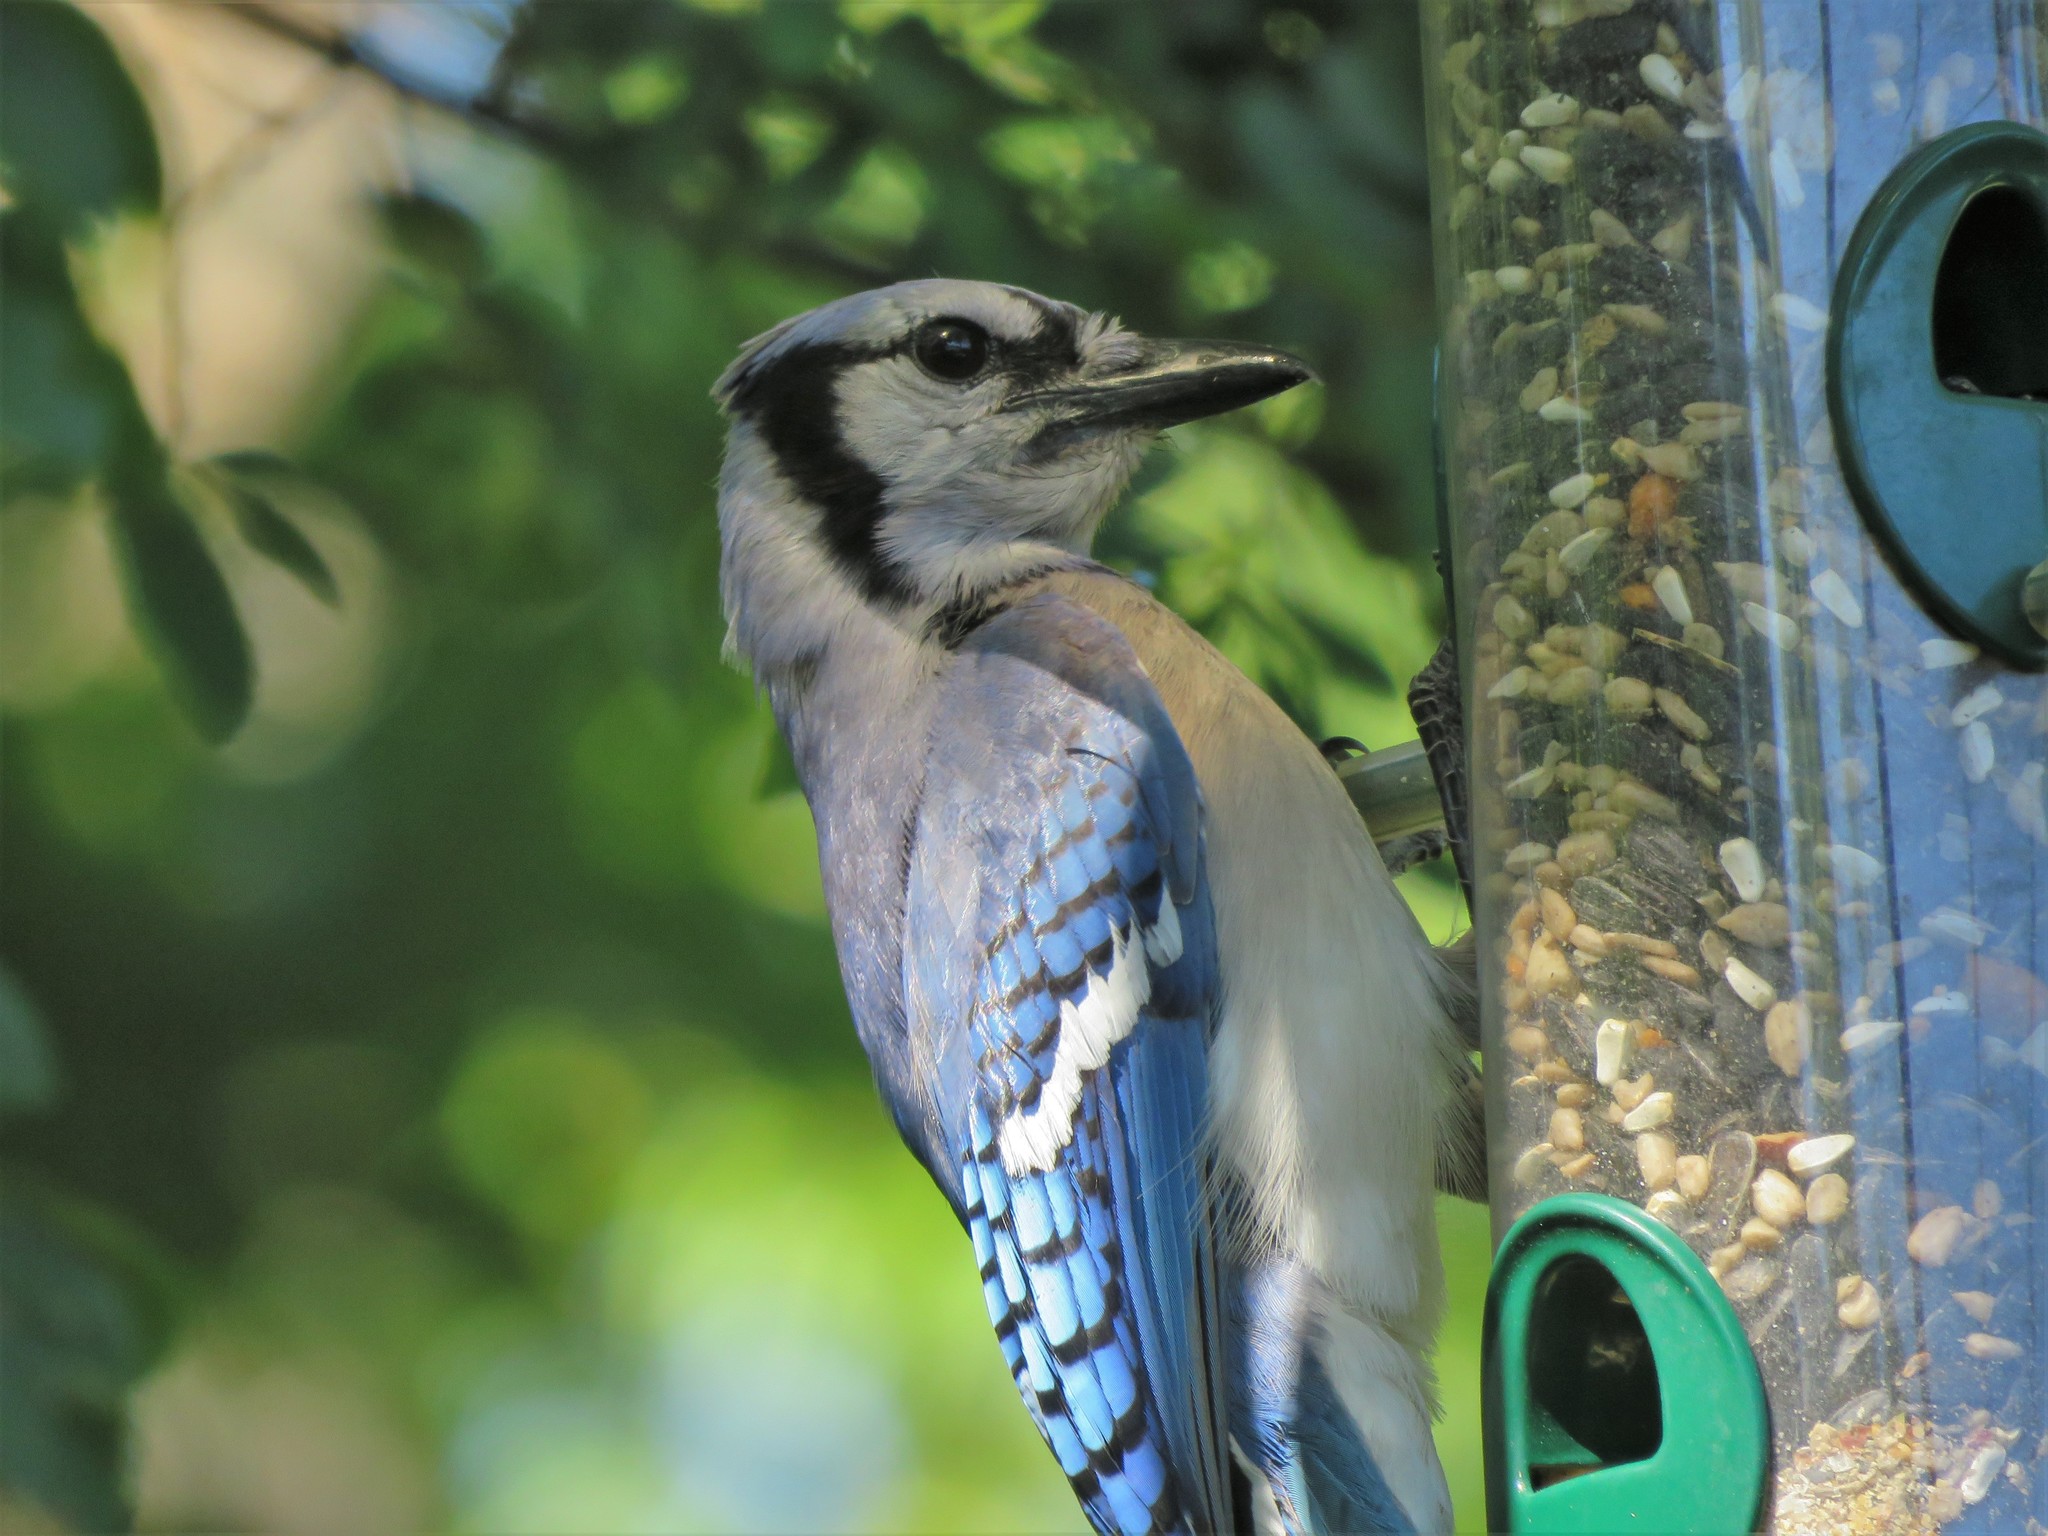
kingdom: Animalia
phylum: Chordata
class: Aves
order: Passeriformes
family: Corvidae
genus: Cyanocitta
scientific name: Cyanocitta cristata
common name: Blue jay
